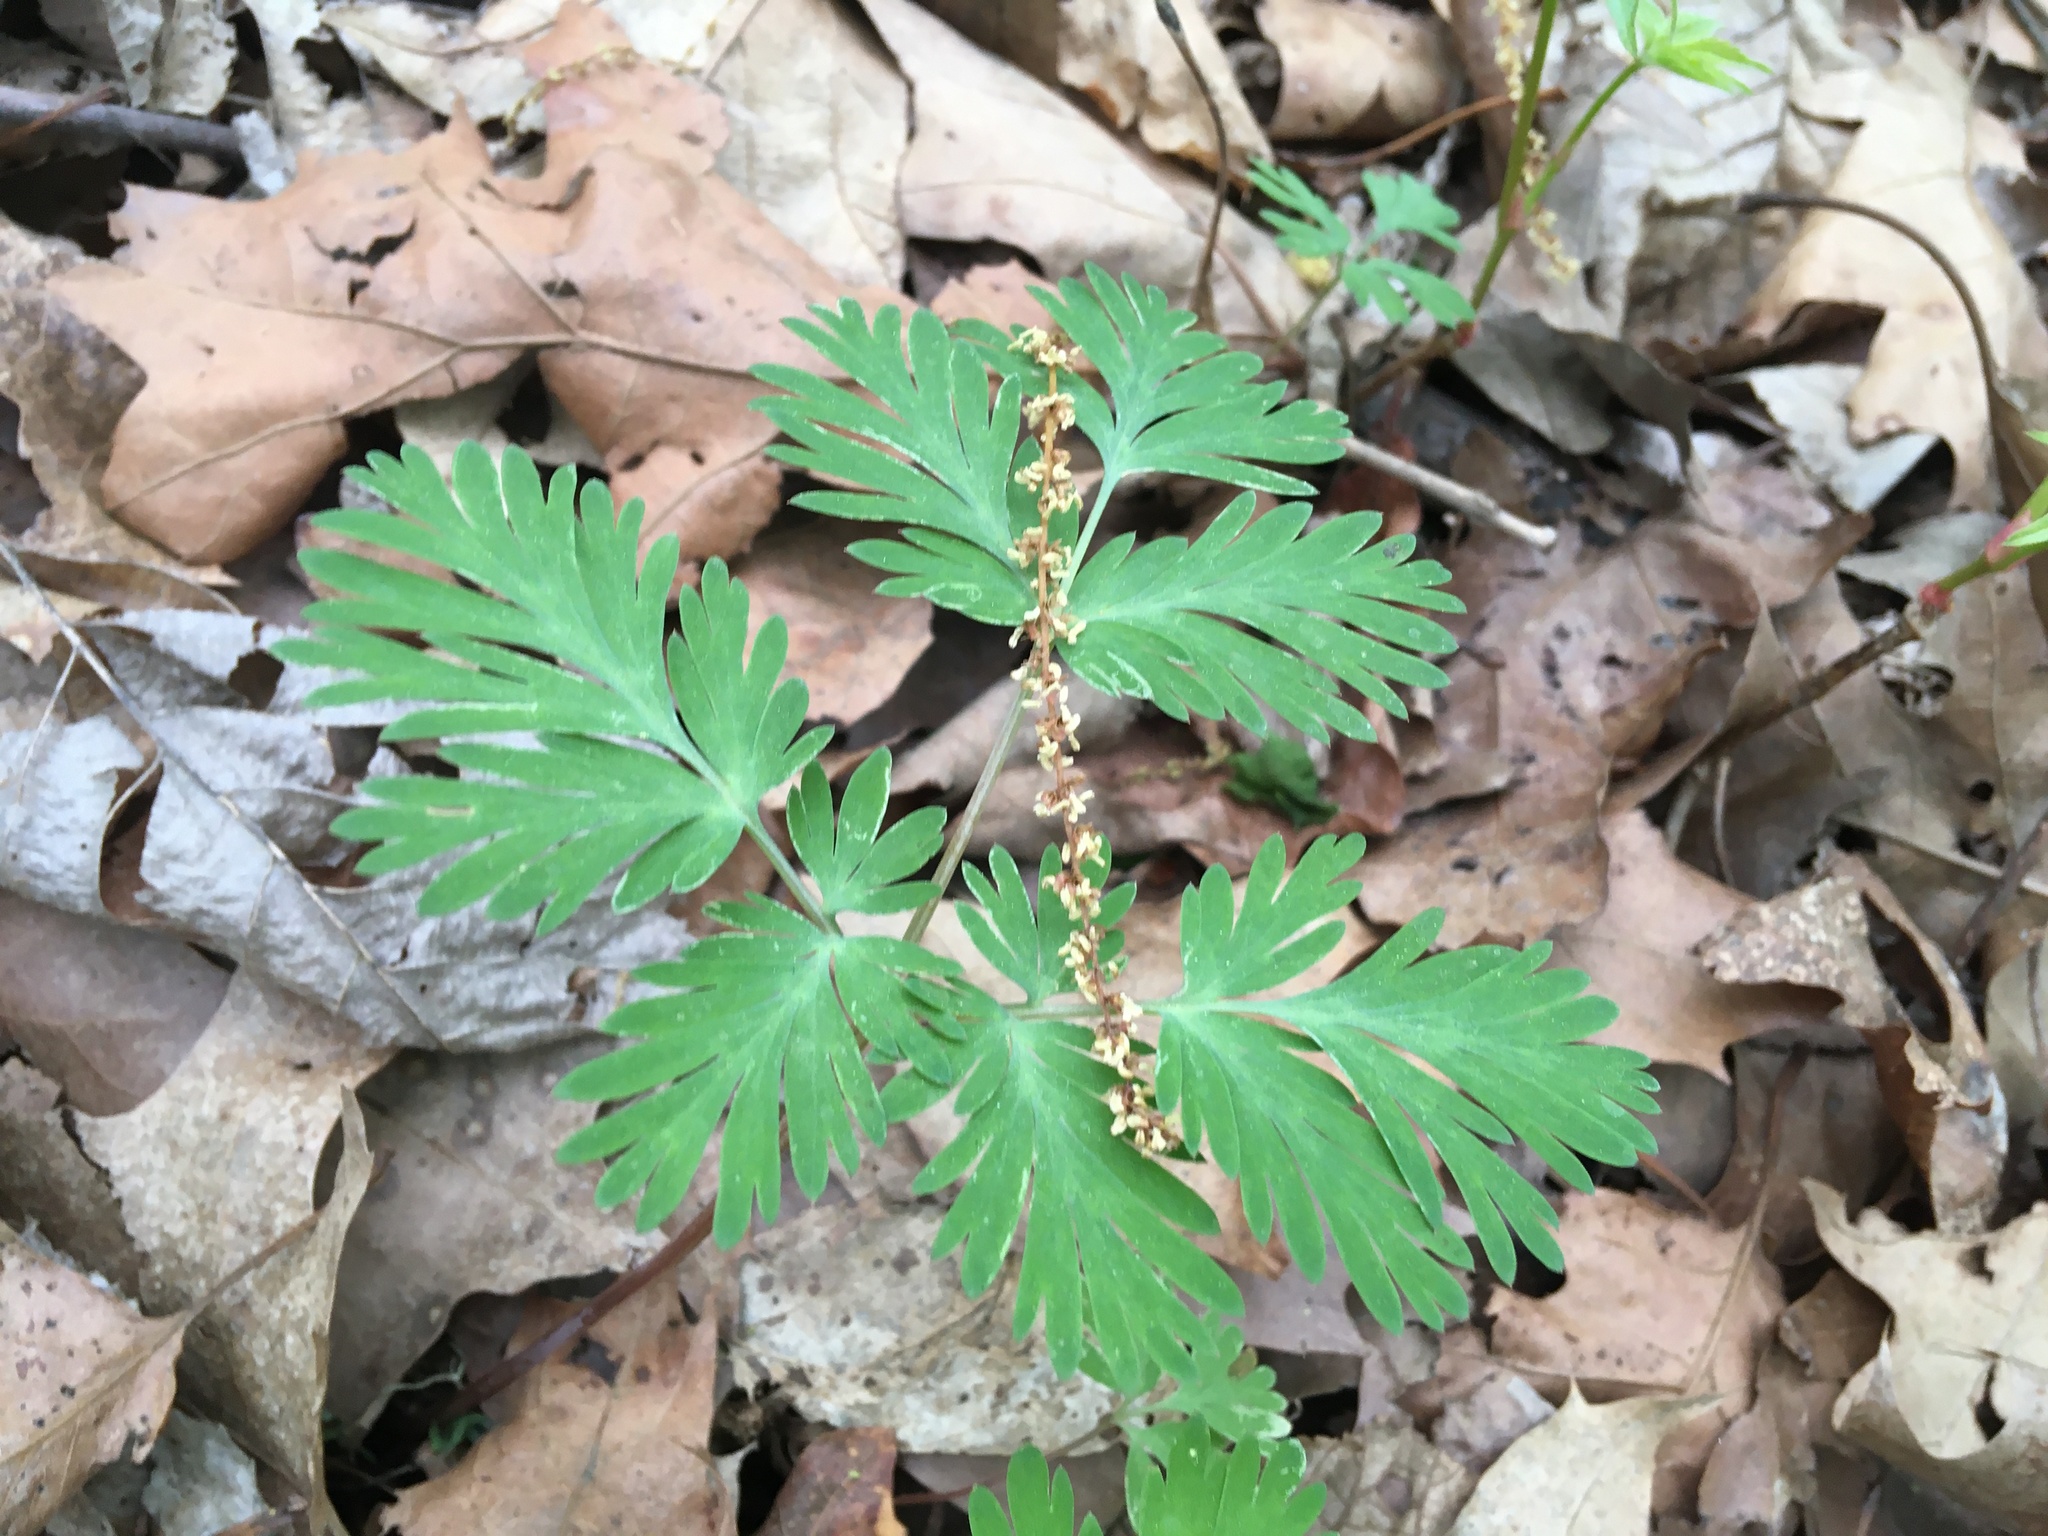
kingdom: Plantae
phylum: Tracheophyta
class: Magnoliopsida
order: Ranunculales
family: Papaveraceae
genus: Dicentra
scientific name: Dicentra cucullaria
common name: Dutchman's breeches
